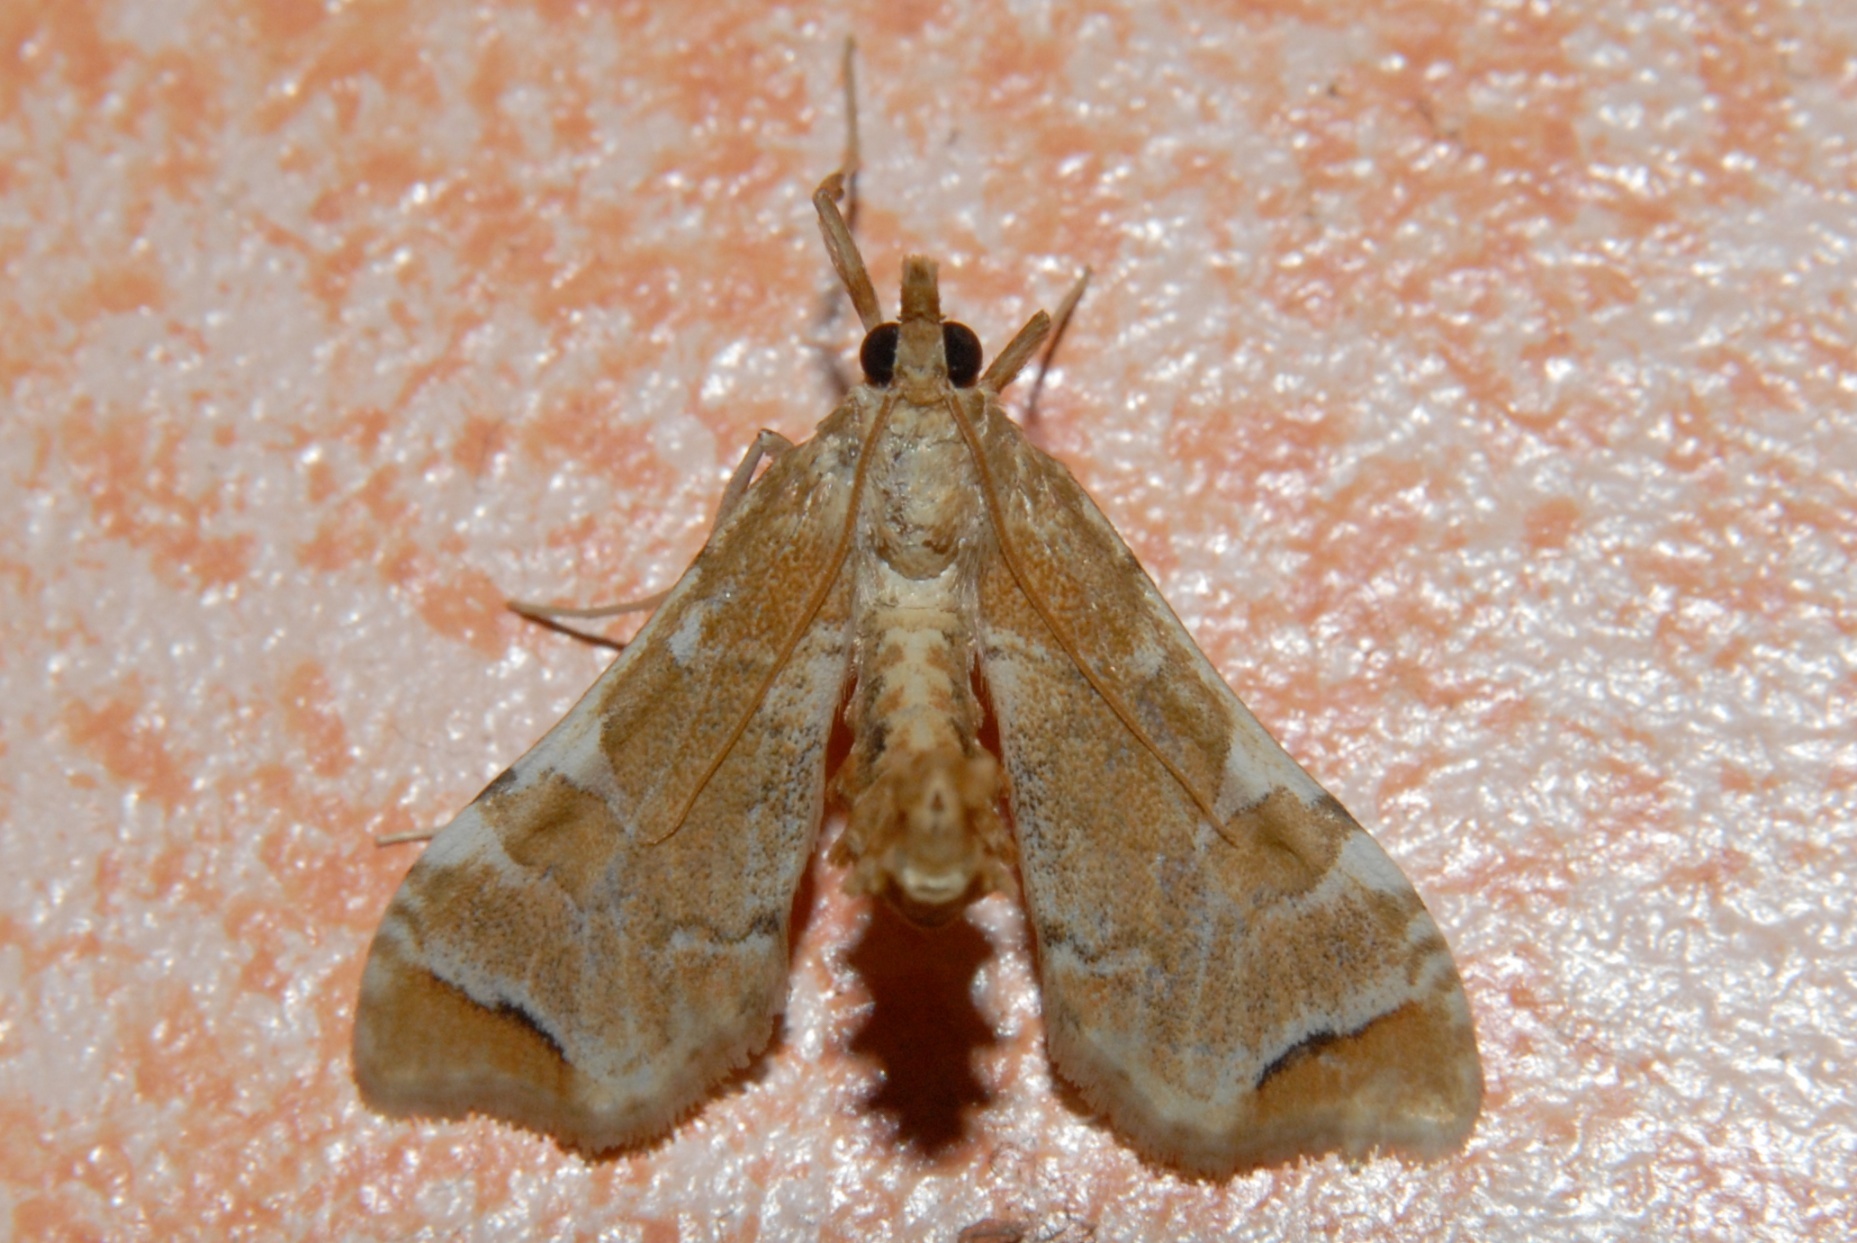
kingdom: Animalia
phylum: Arthropoda
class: Insecta
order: Lepidoptera
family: Crambidae
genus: Sceliodes
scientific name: Sceliodes cordalis
